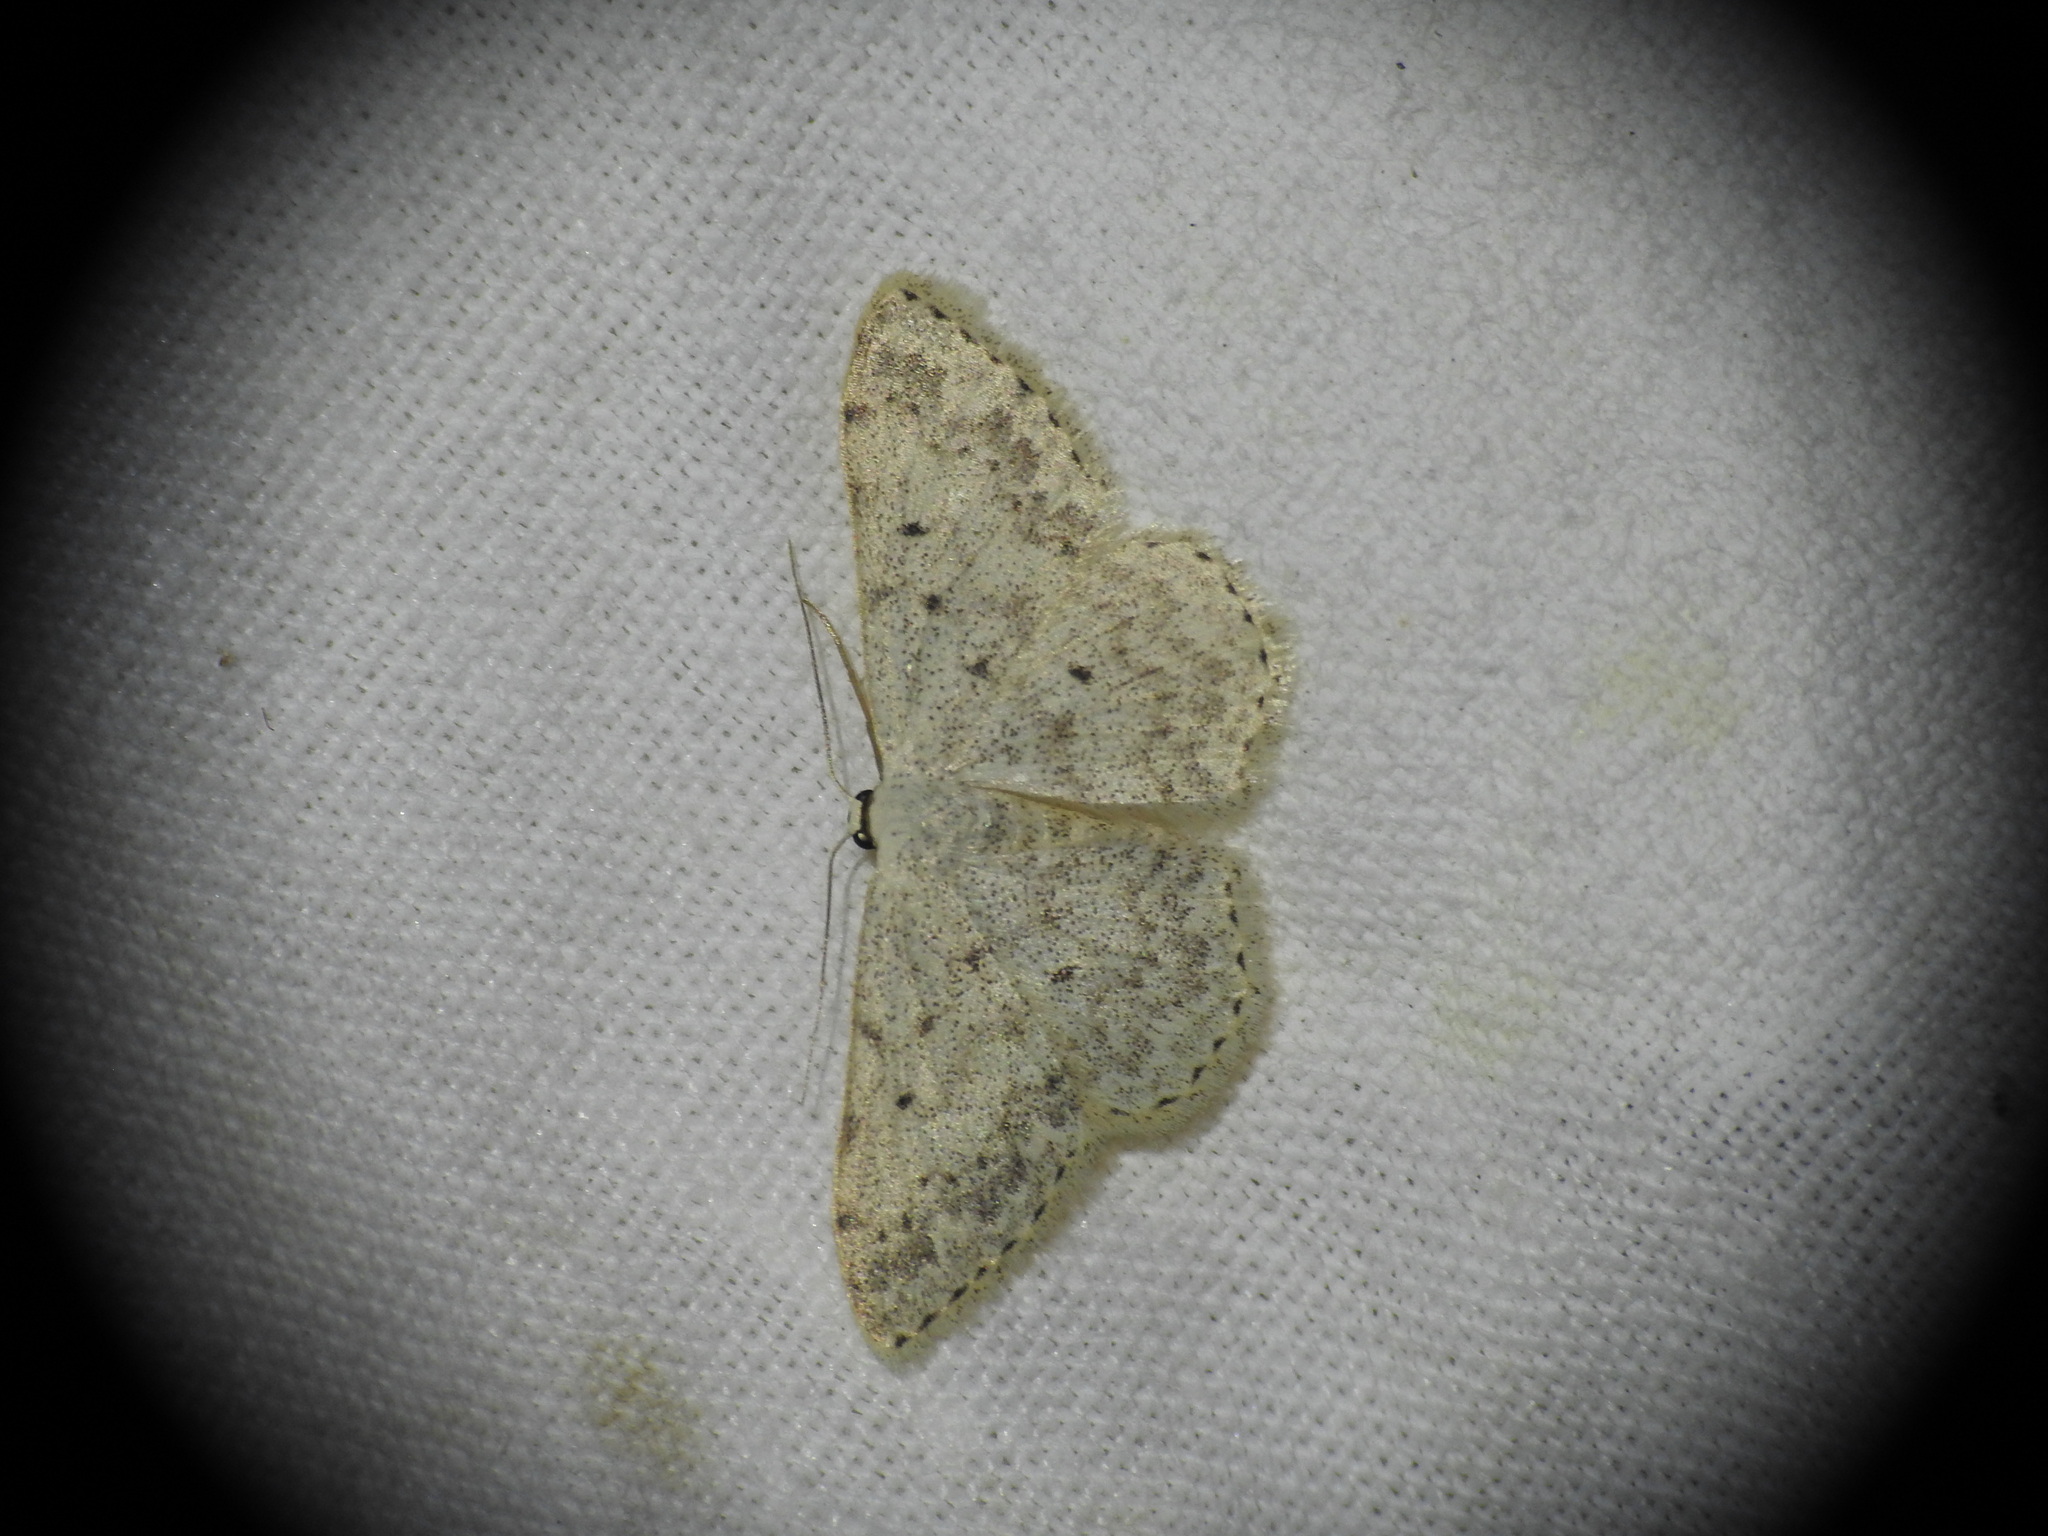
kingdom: Animalia
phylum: Arthropoda
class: Insecta
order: Lepidoptera
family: Geometridae
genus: Scopula
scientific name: Scopula marginepunctata
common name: Mullein wave
